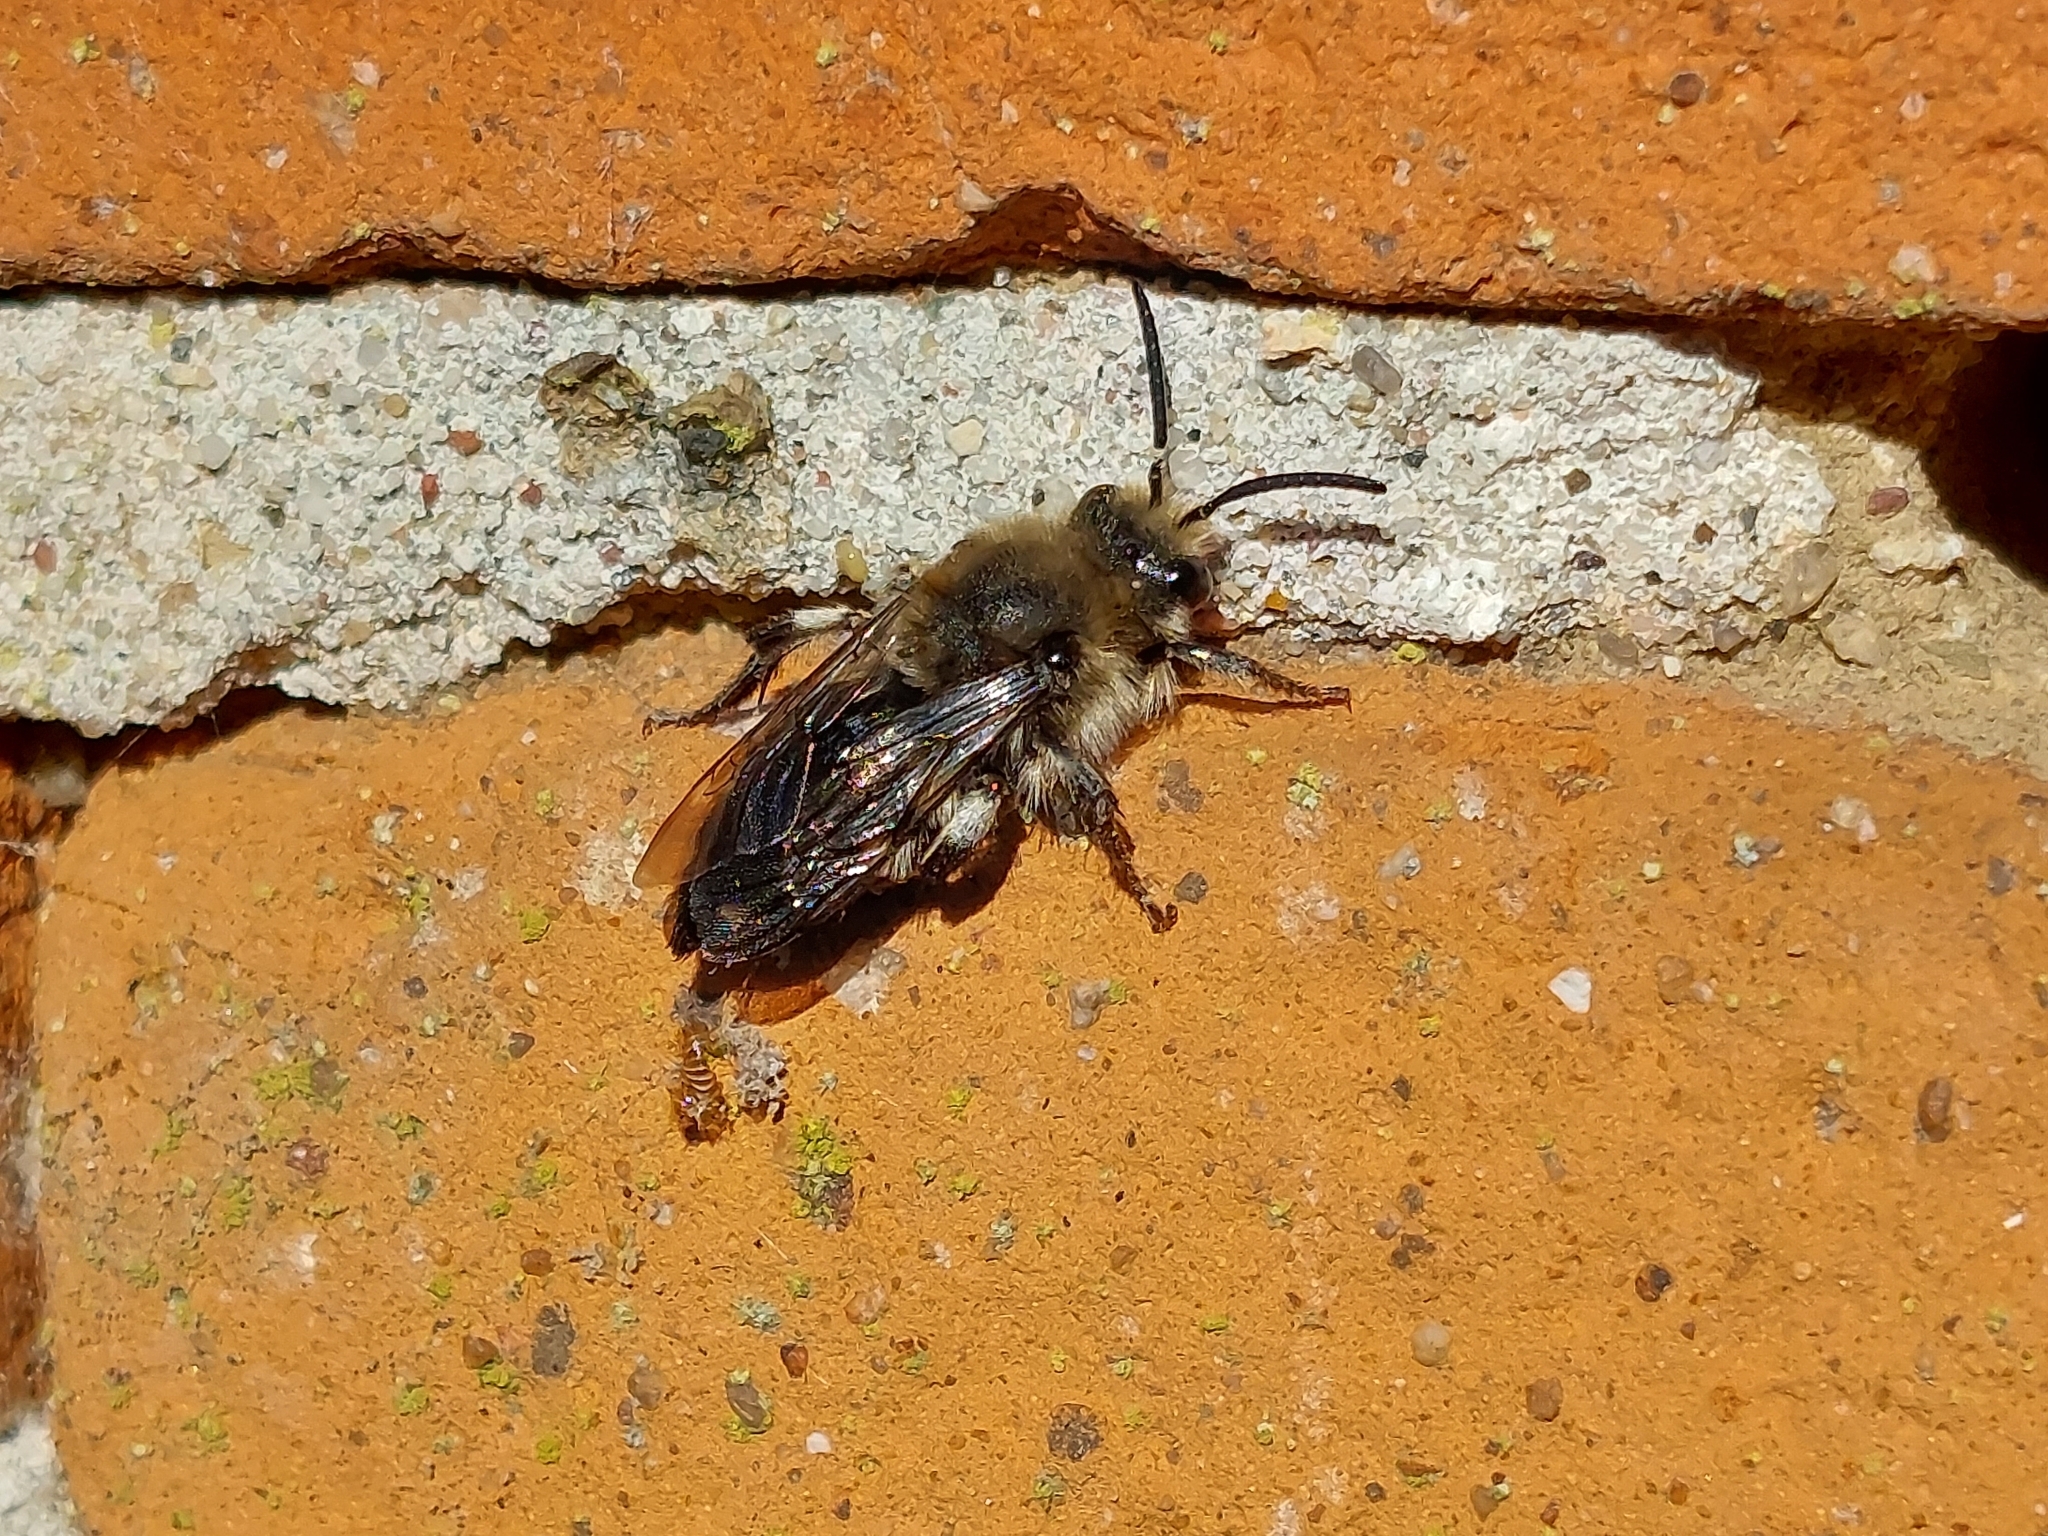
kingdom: Animalia
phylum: Arthropoda
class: Insecta
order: Hymenoptera
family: Apidae
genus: Melecta
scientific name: Melecta albifrons
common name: Common mourning bee
